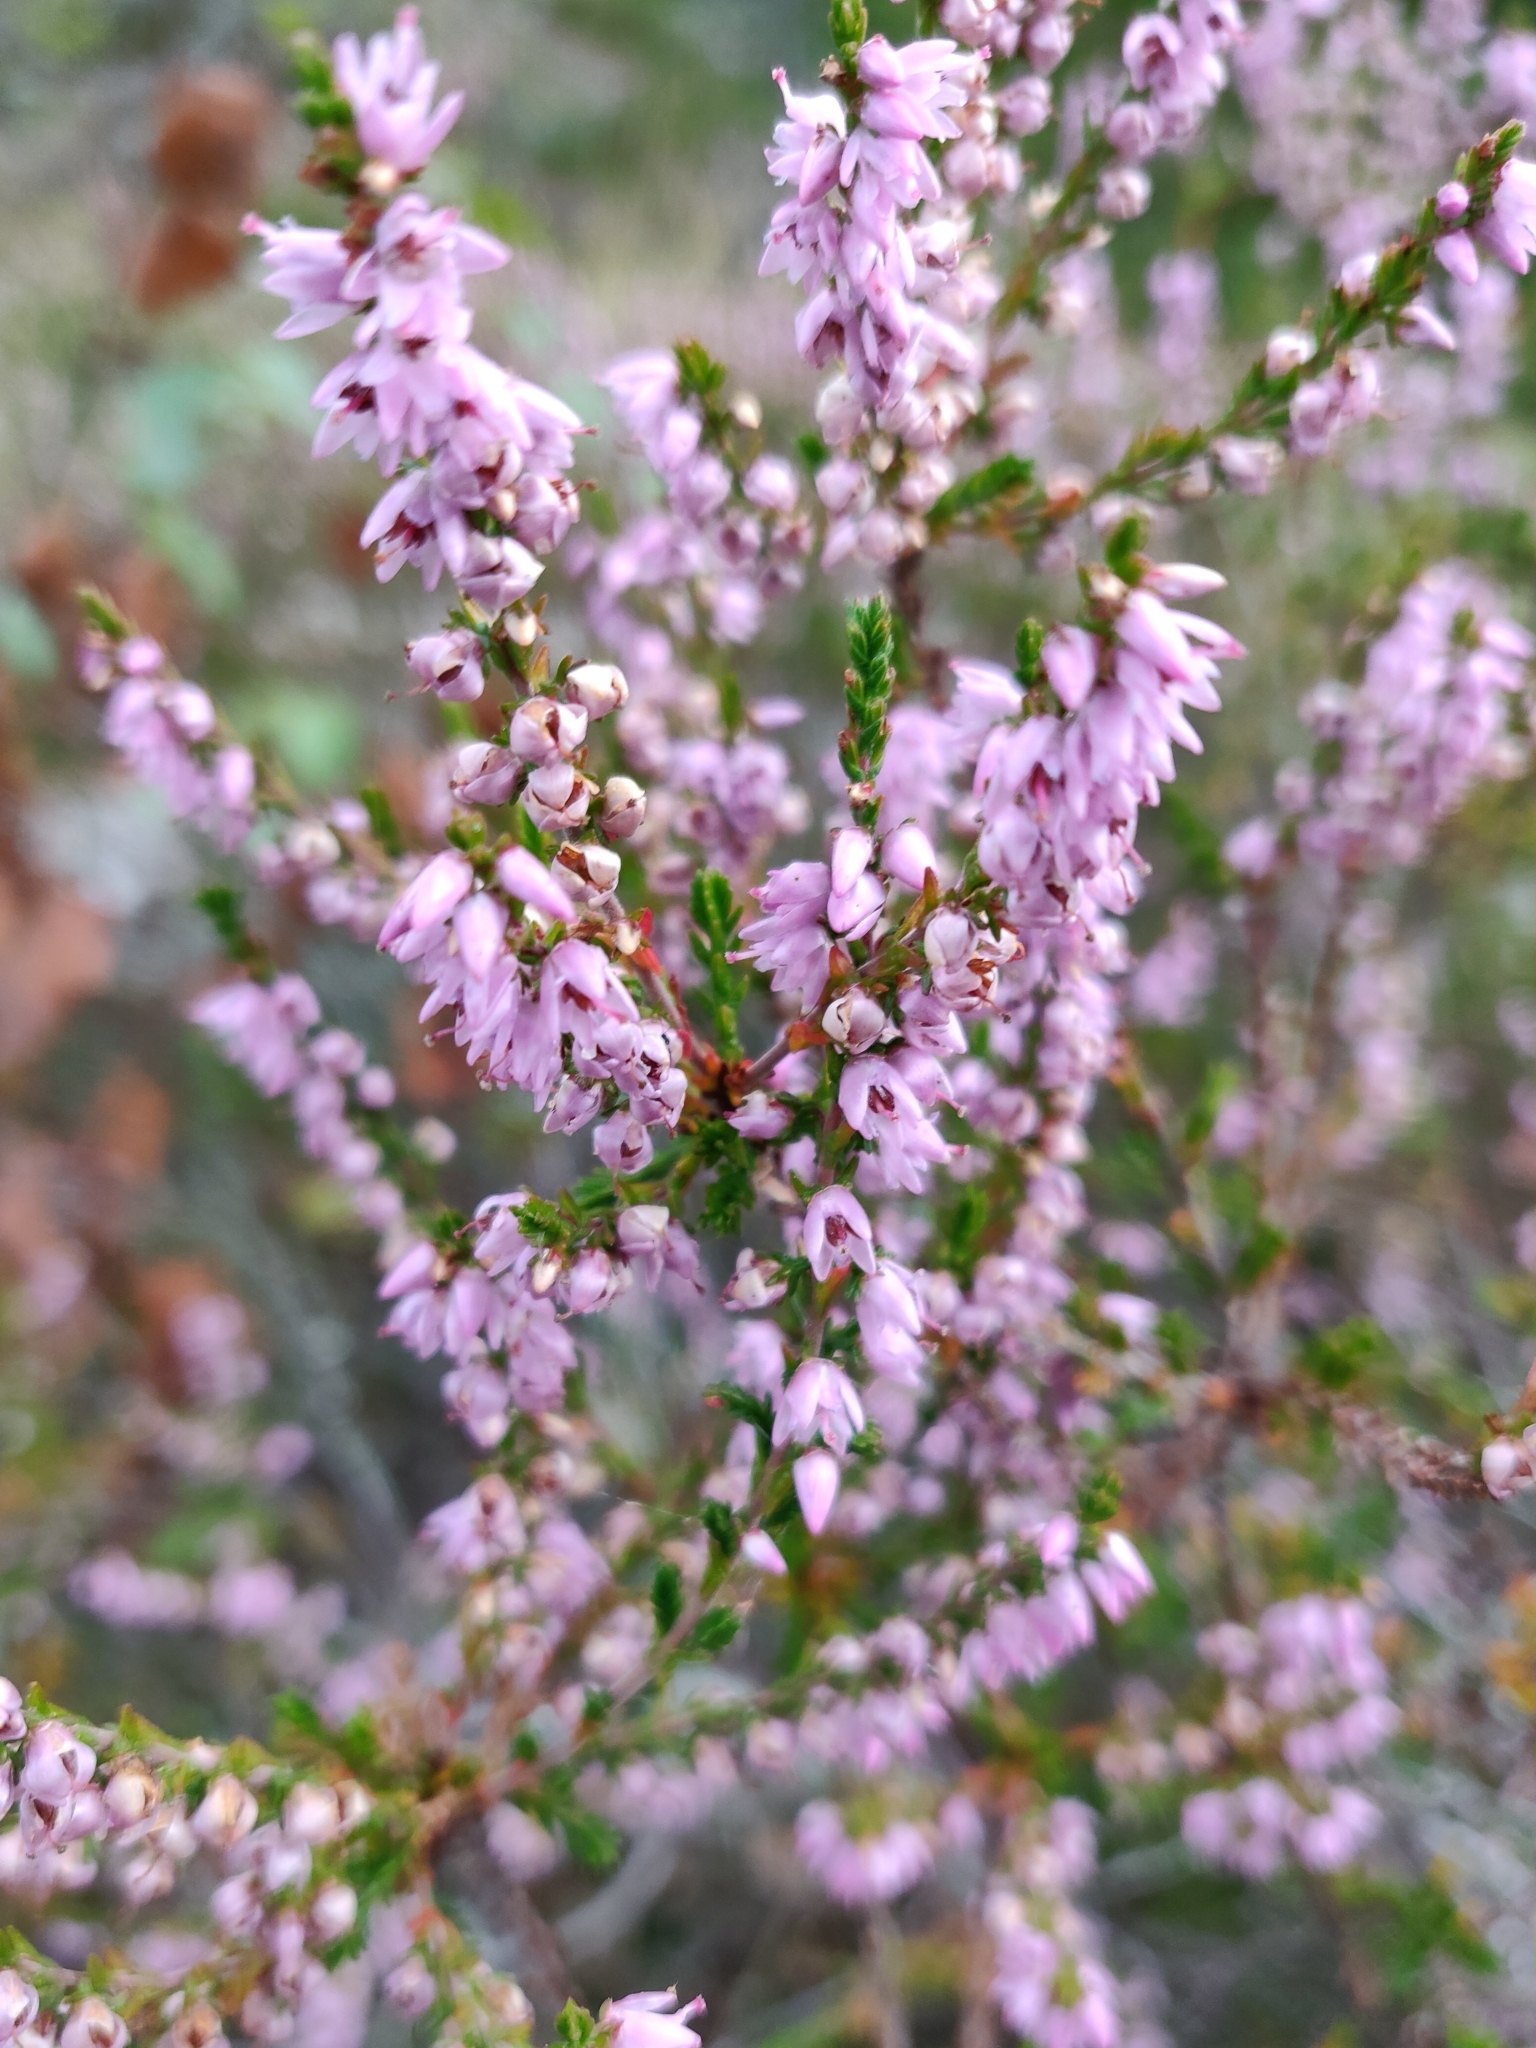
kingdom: Plantae
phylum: Tracheophyta
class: Magnoliopsida
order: Ericales
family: Ericaceae
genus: Calluna
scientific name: Calluna vulgaris
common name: Heather
